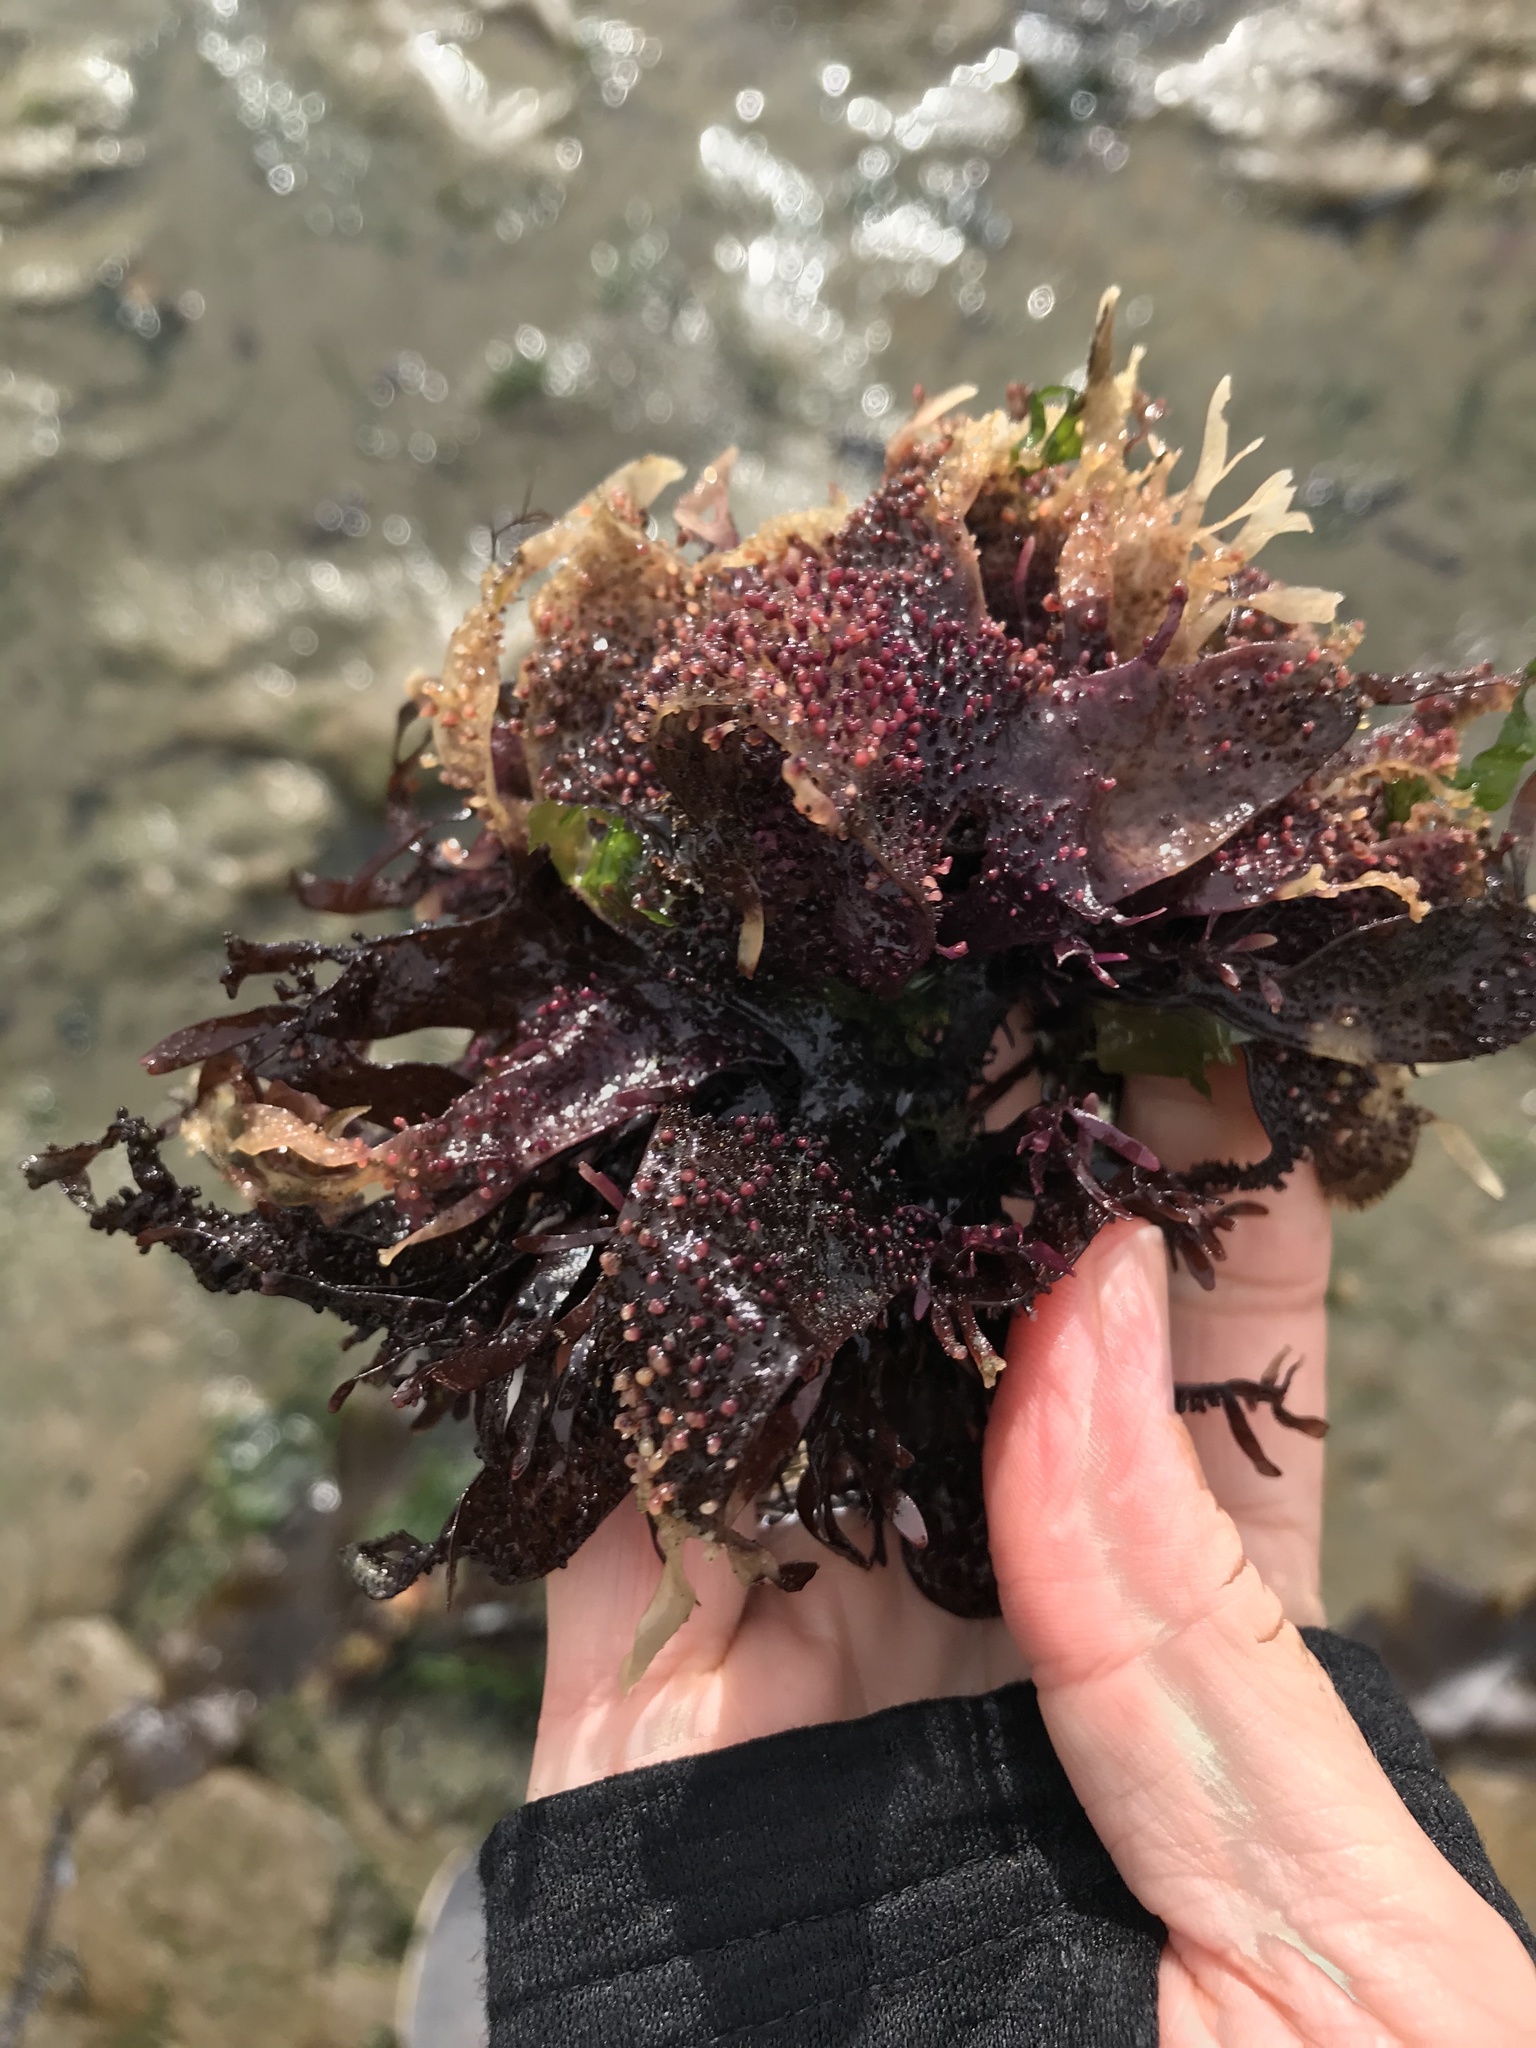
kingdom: Plantae
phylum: Rhodophyta
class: Florideophyceae
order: Gigartinales
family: Phyllophoraceae
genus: Mastocarpus
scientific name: Mastocarpus papillatus
